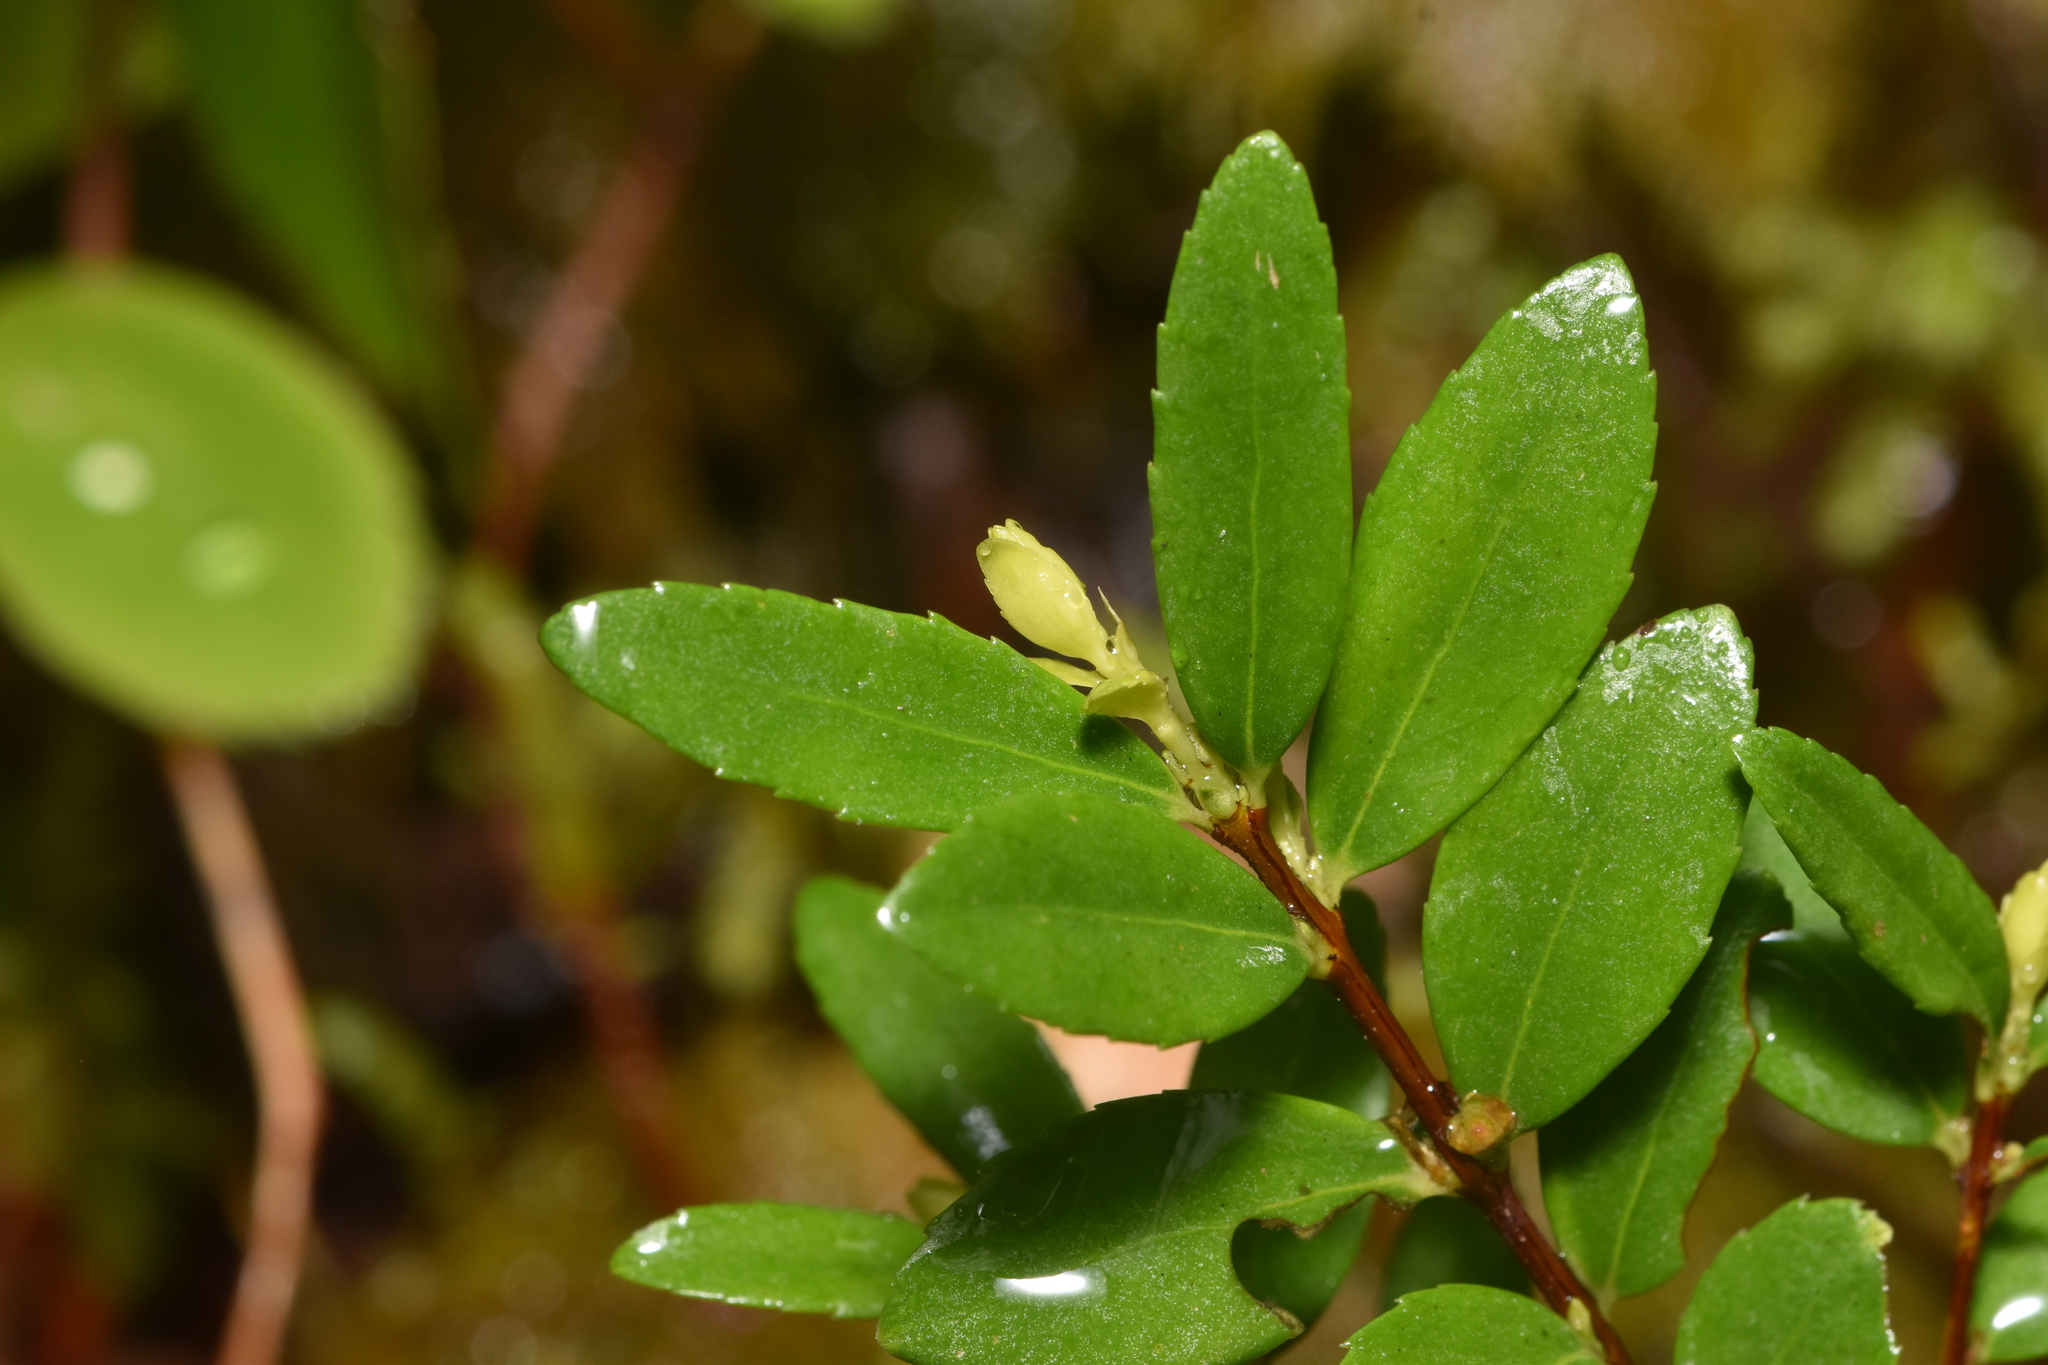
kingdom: Plantae
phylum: Tracheophyta
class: Magnoliopsida
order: Celastrales
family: Celastraceae
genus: Paxistima
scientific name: Paxistima myrsinites
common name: Mountain-lover
